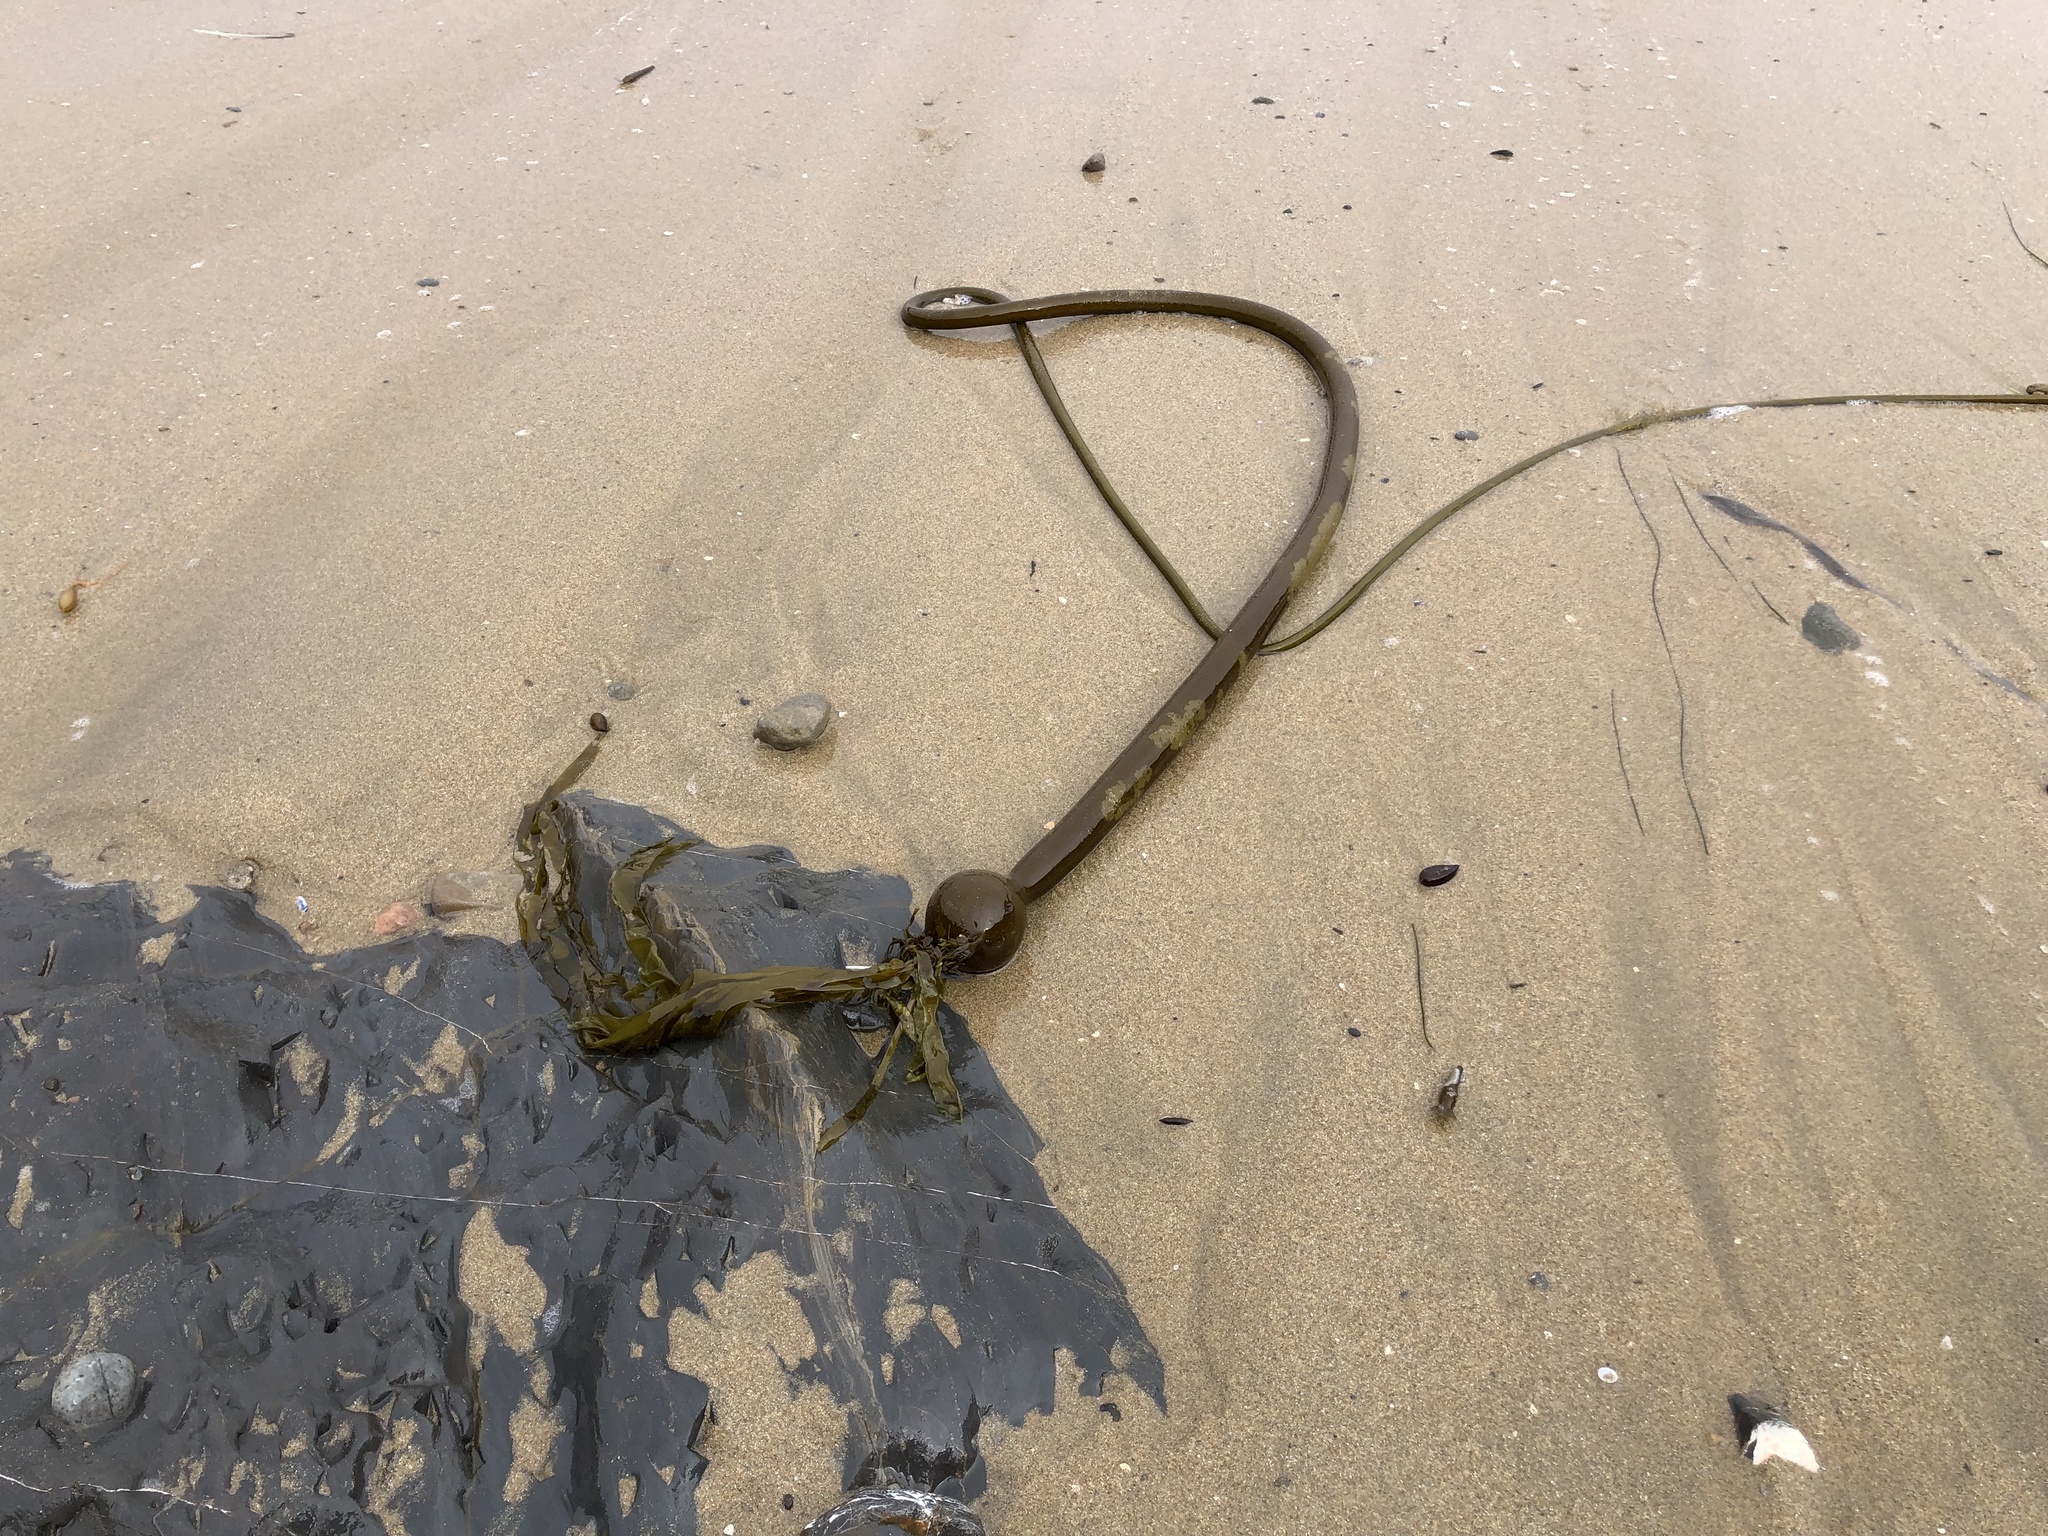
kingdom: Chromista
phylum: Ochrophyta
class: Phaeophyceae
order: Laminariales
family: Laminariaceae
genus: Nereocystis
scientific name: Nereocystis luetkeana
